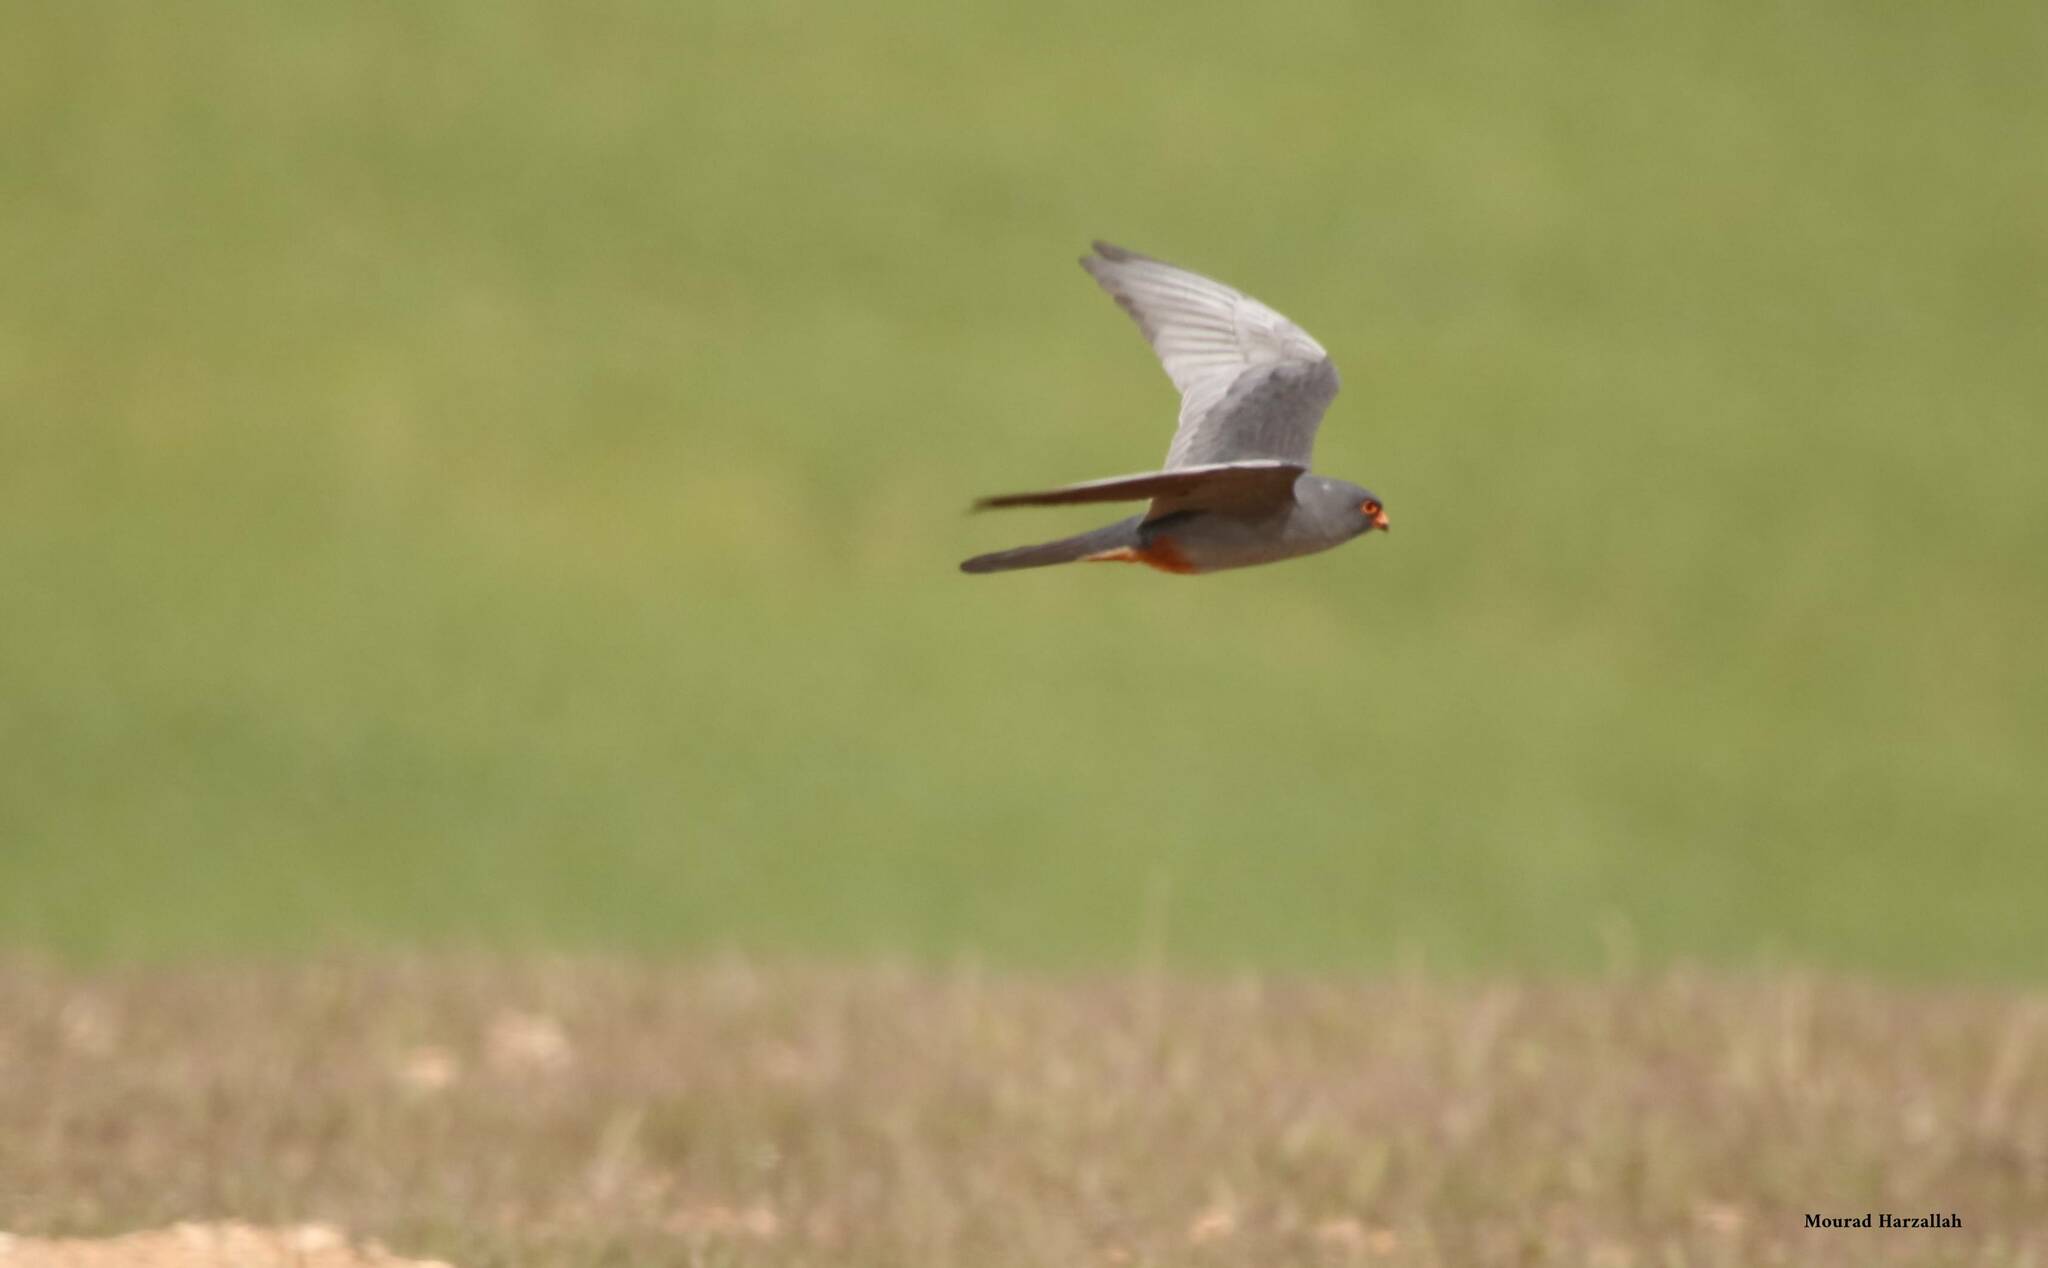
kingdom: Animalia
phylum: Chordata
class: Aves
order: Falconiformes
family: Falconidae
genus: Falco
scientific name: Falco vespertinus
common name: Red-footed falcon
